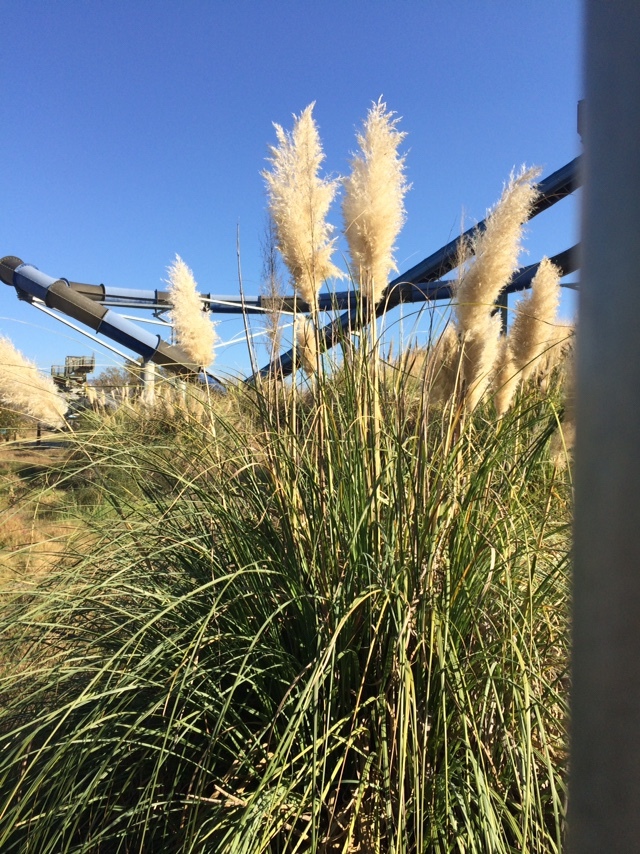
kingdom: Plantae
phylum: Tracheophyta
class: Liliopsida
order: Poales
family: Poaceae
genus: Cortaderia
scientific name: Cortaderia selloana
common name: Uruguayan pampas grass
